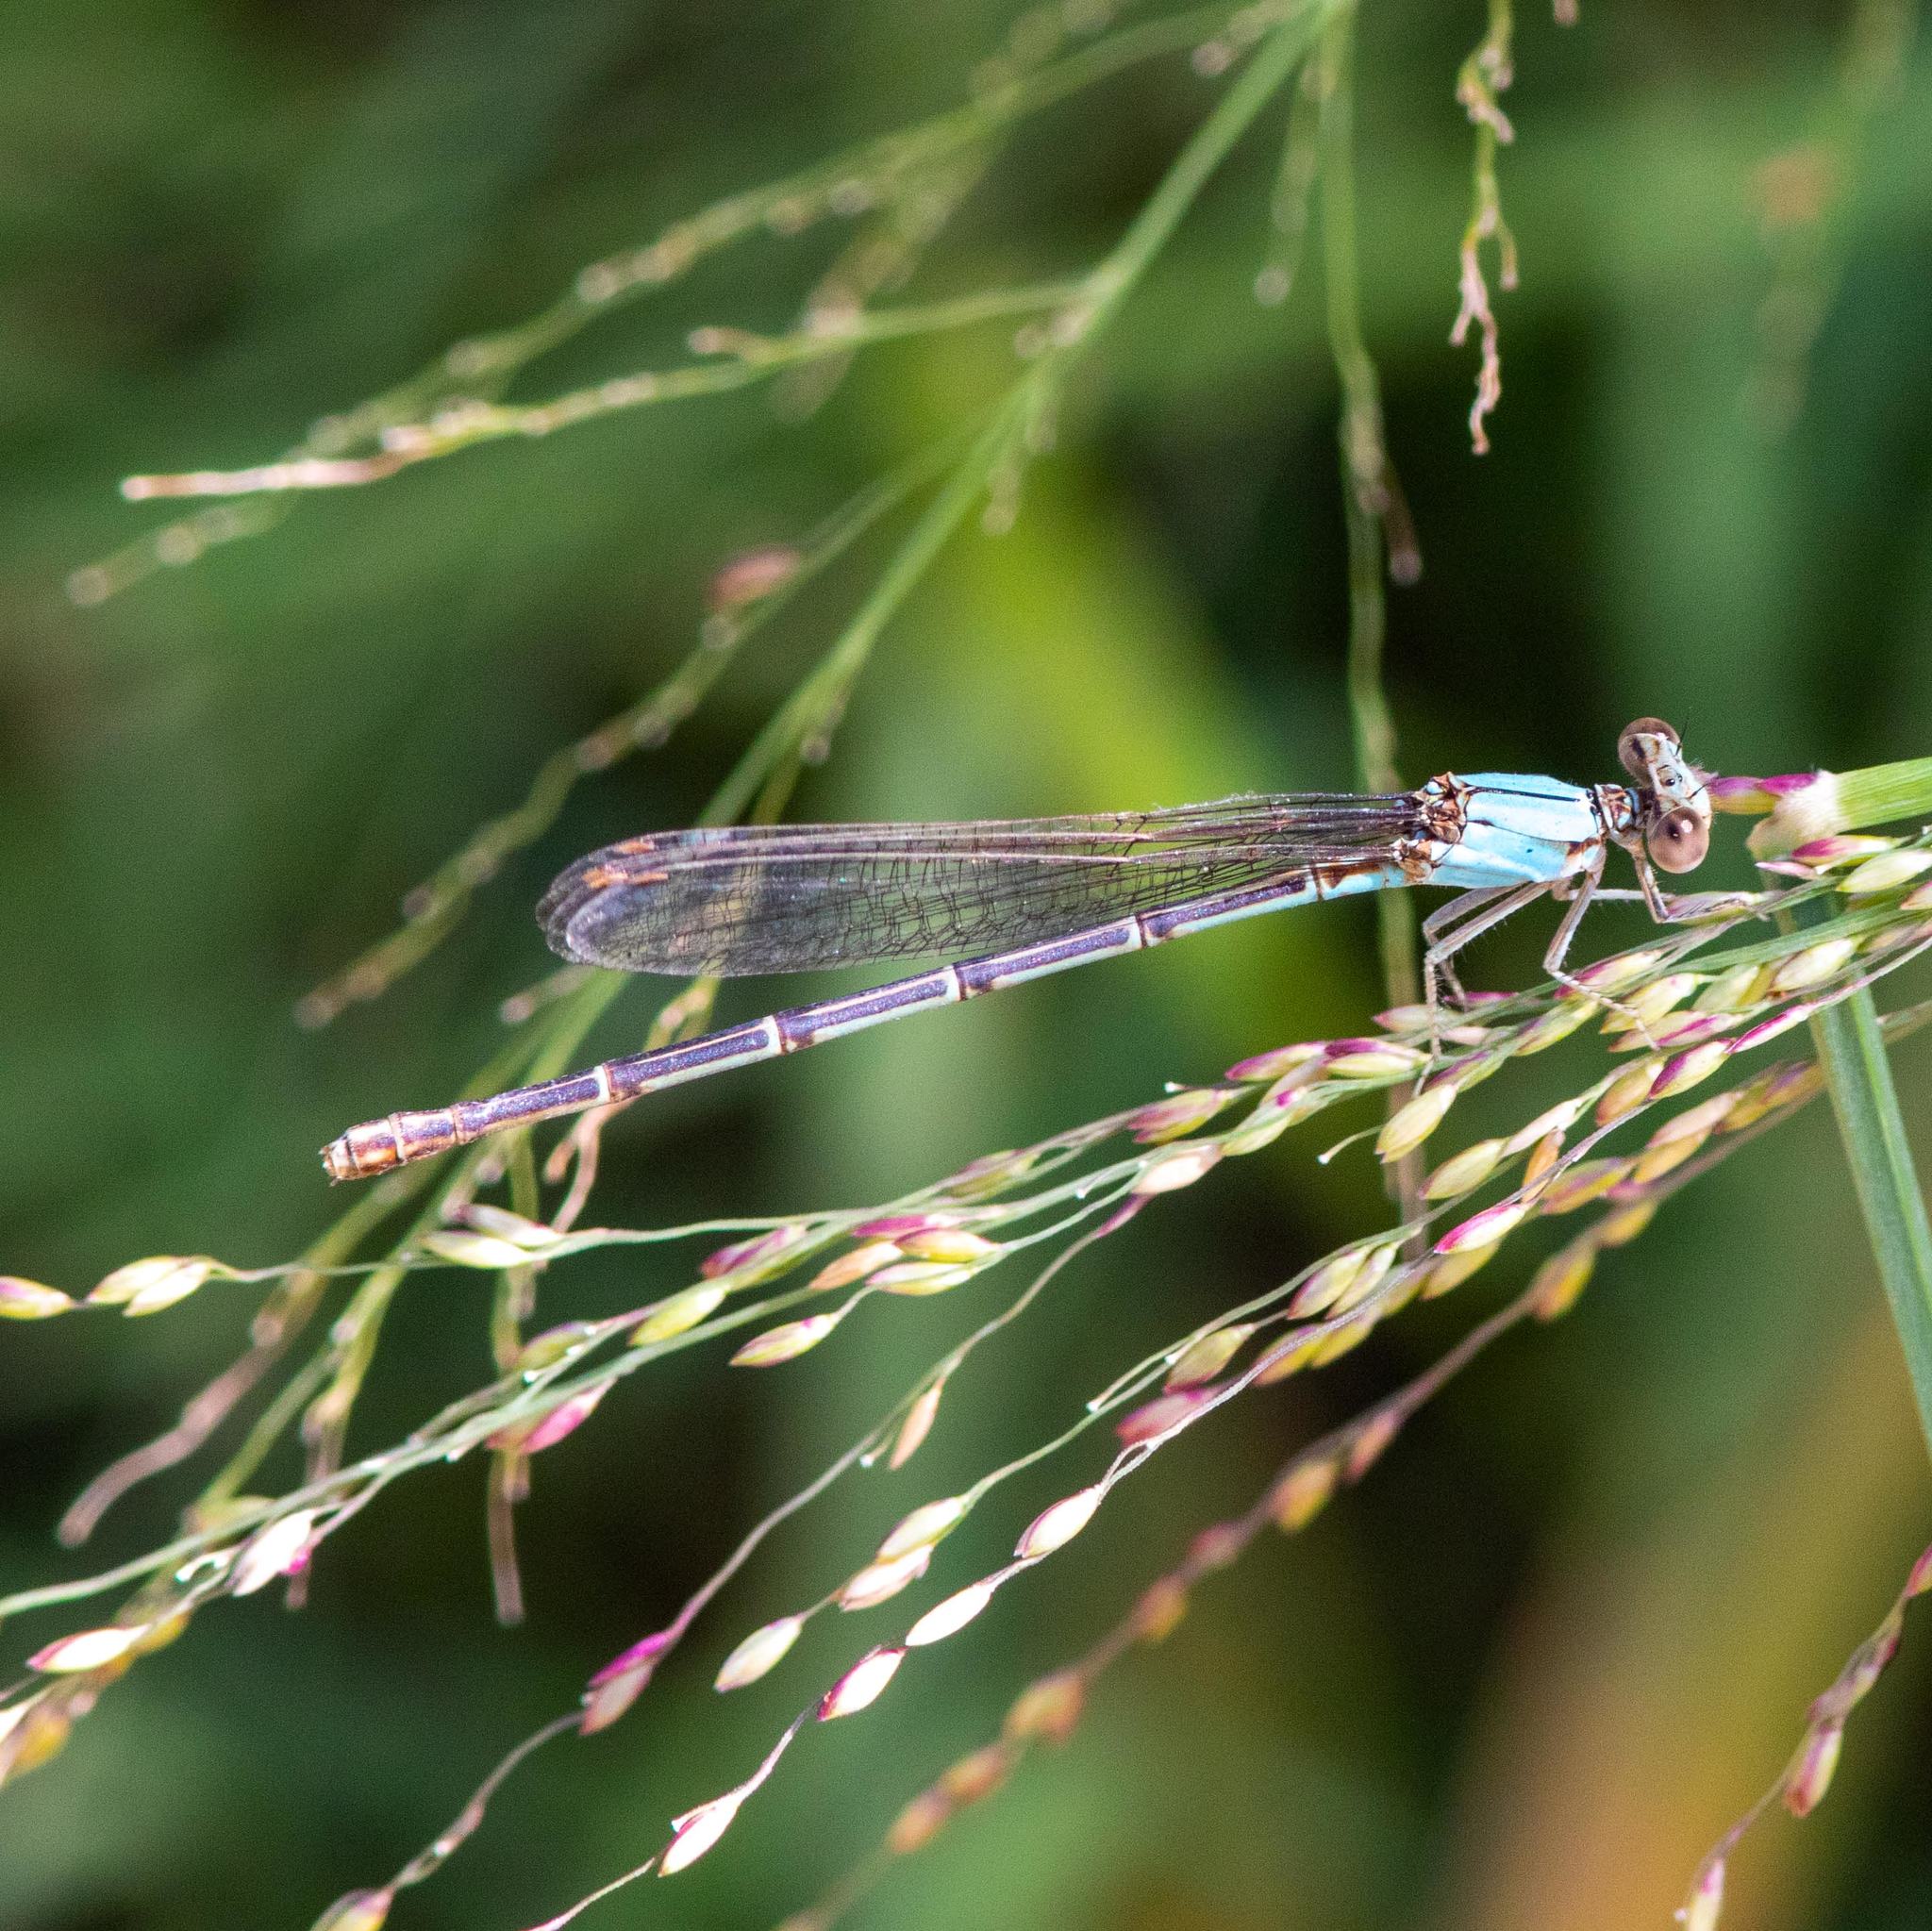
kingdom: Animalia
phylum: Arthropoda
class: Insecta
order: Odonata
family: Coenagrionidae
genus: Argia
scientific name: Argia moesta
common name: Powdered dancer
